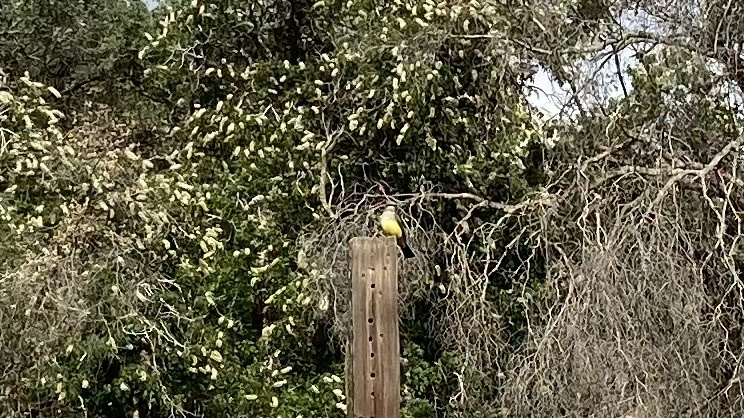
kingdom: Animalia
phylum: Chordata
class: Aves
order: Passeriformes
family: Tyrannidae
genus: Tyrannus
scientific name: Tyrannus verticalis
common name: Western kingbird
